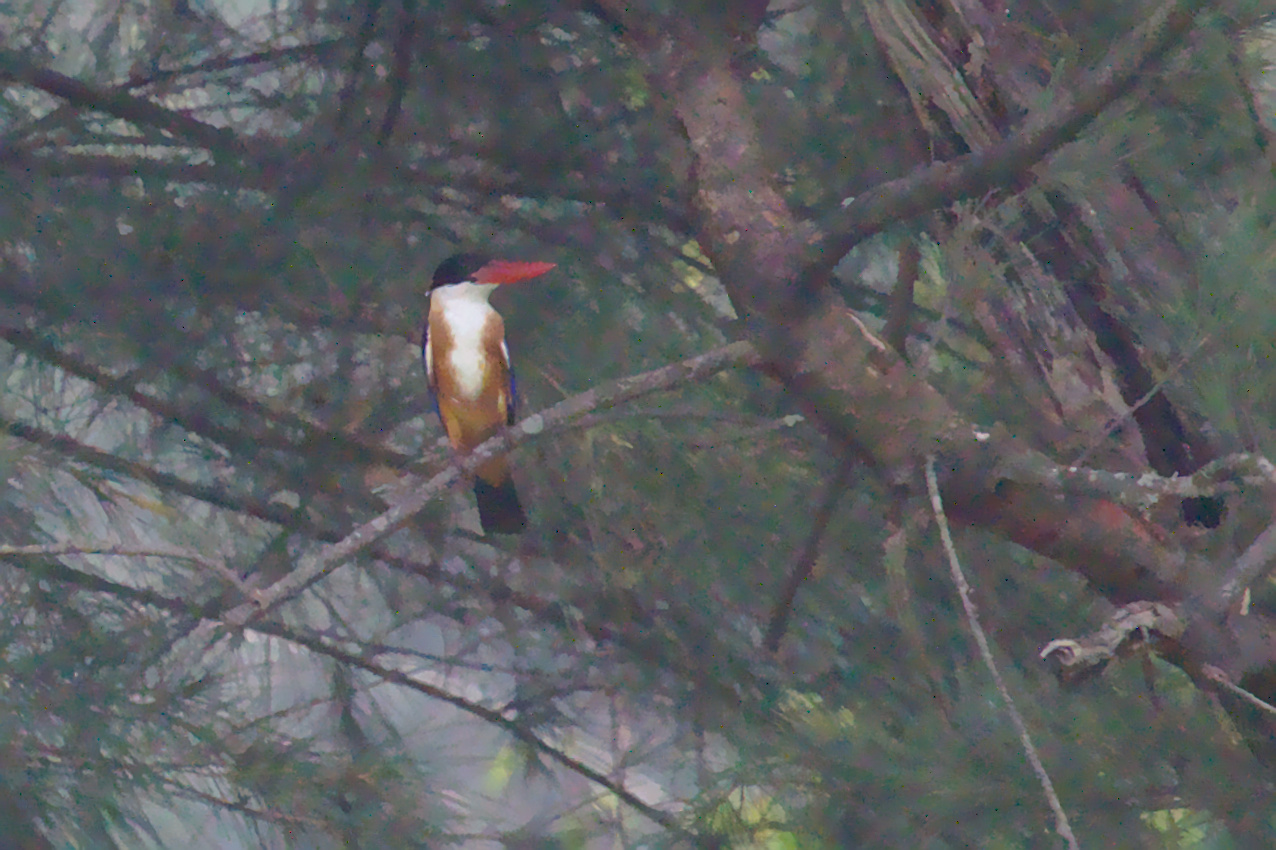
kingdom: Animalia
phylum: Chordata
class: Aves
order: Coraciiformes
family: Alcedinidae
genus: Halcyon
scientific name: Halcyon pileata
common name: Black-capped kingfisher
